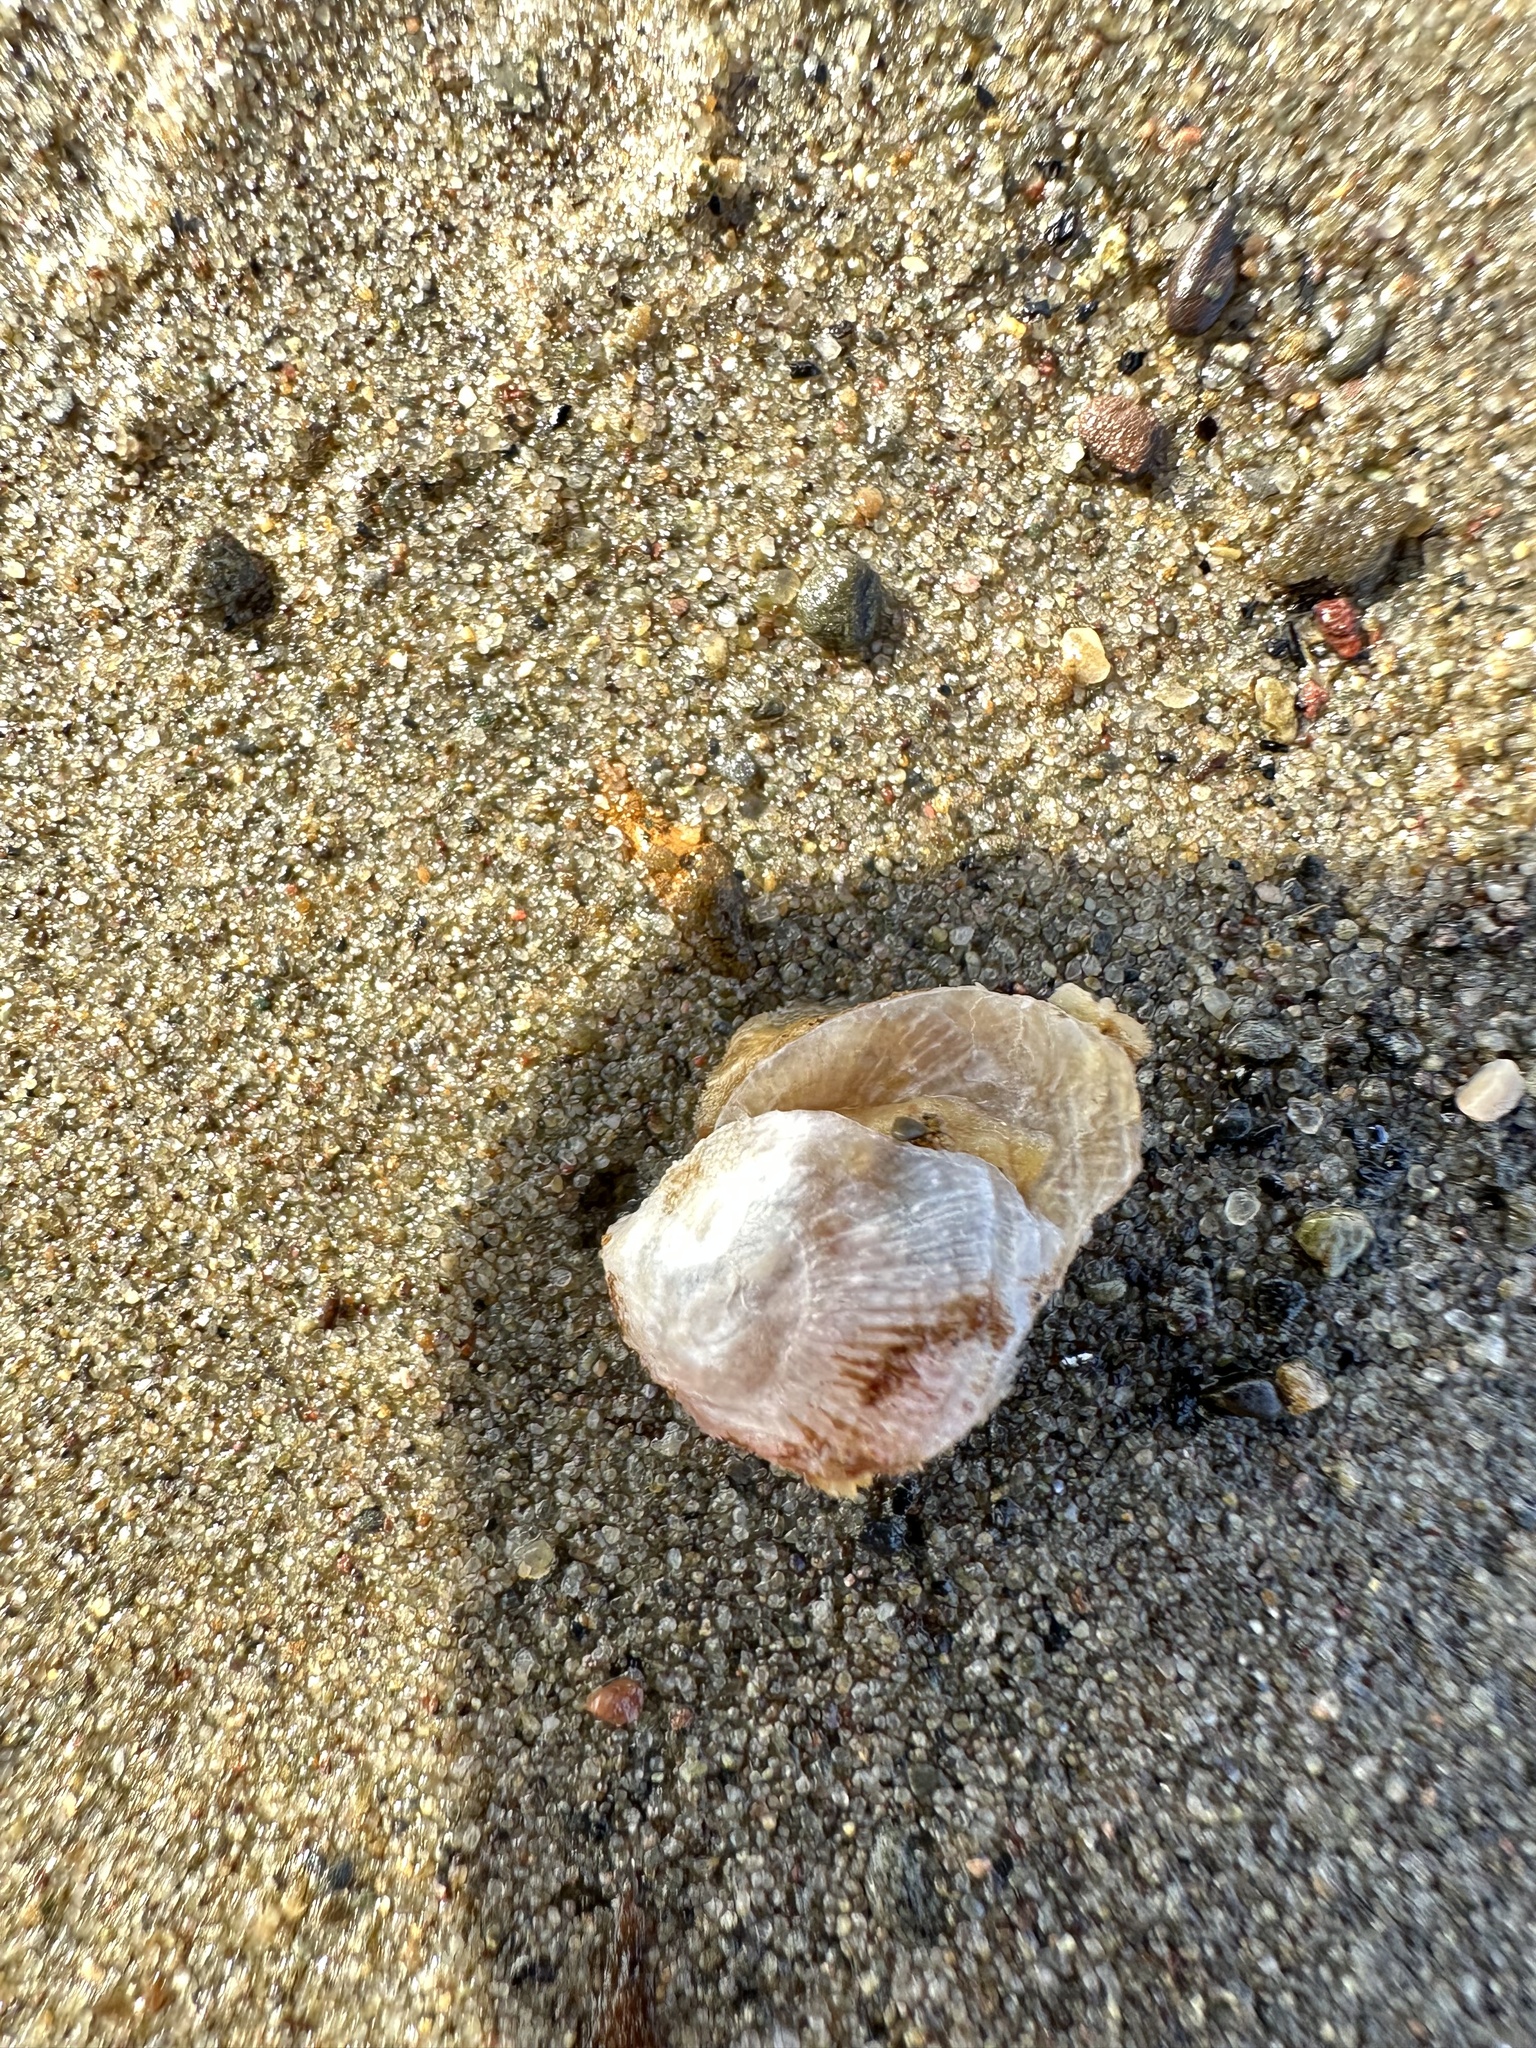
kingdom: Animalia
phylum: Mollusca
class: Bivalvia
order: Pectinida
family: Anomiidae
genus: Heteranomia
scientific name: Heteranomia squamula
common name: Prickly jingle
